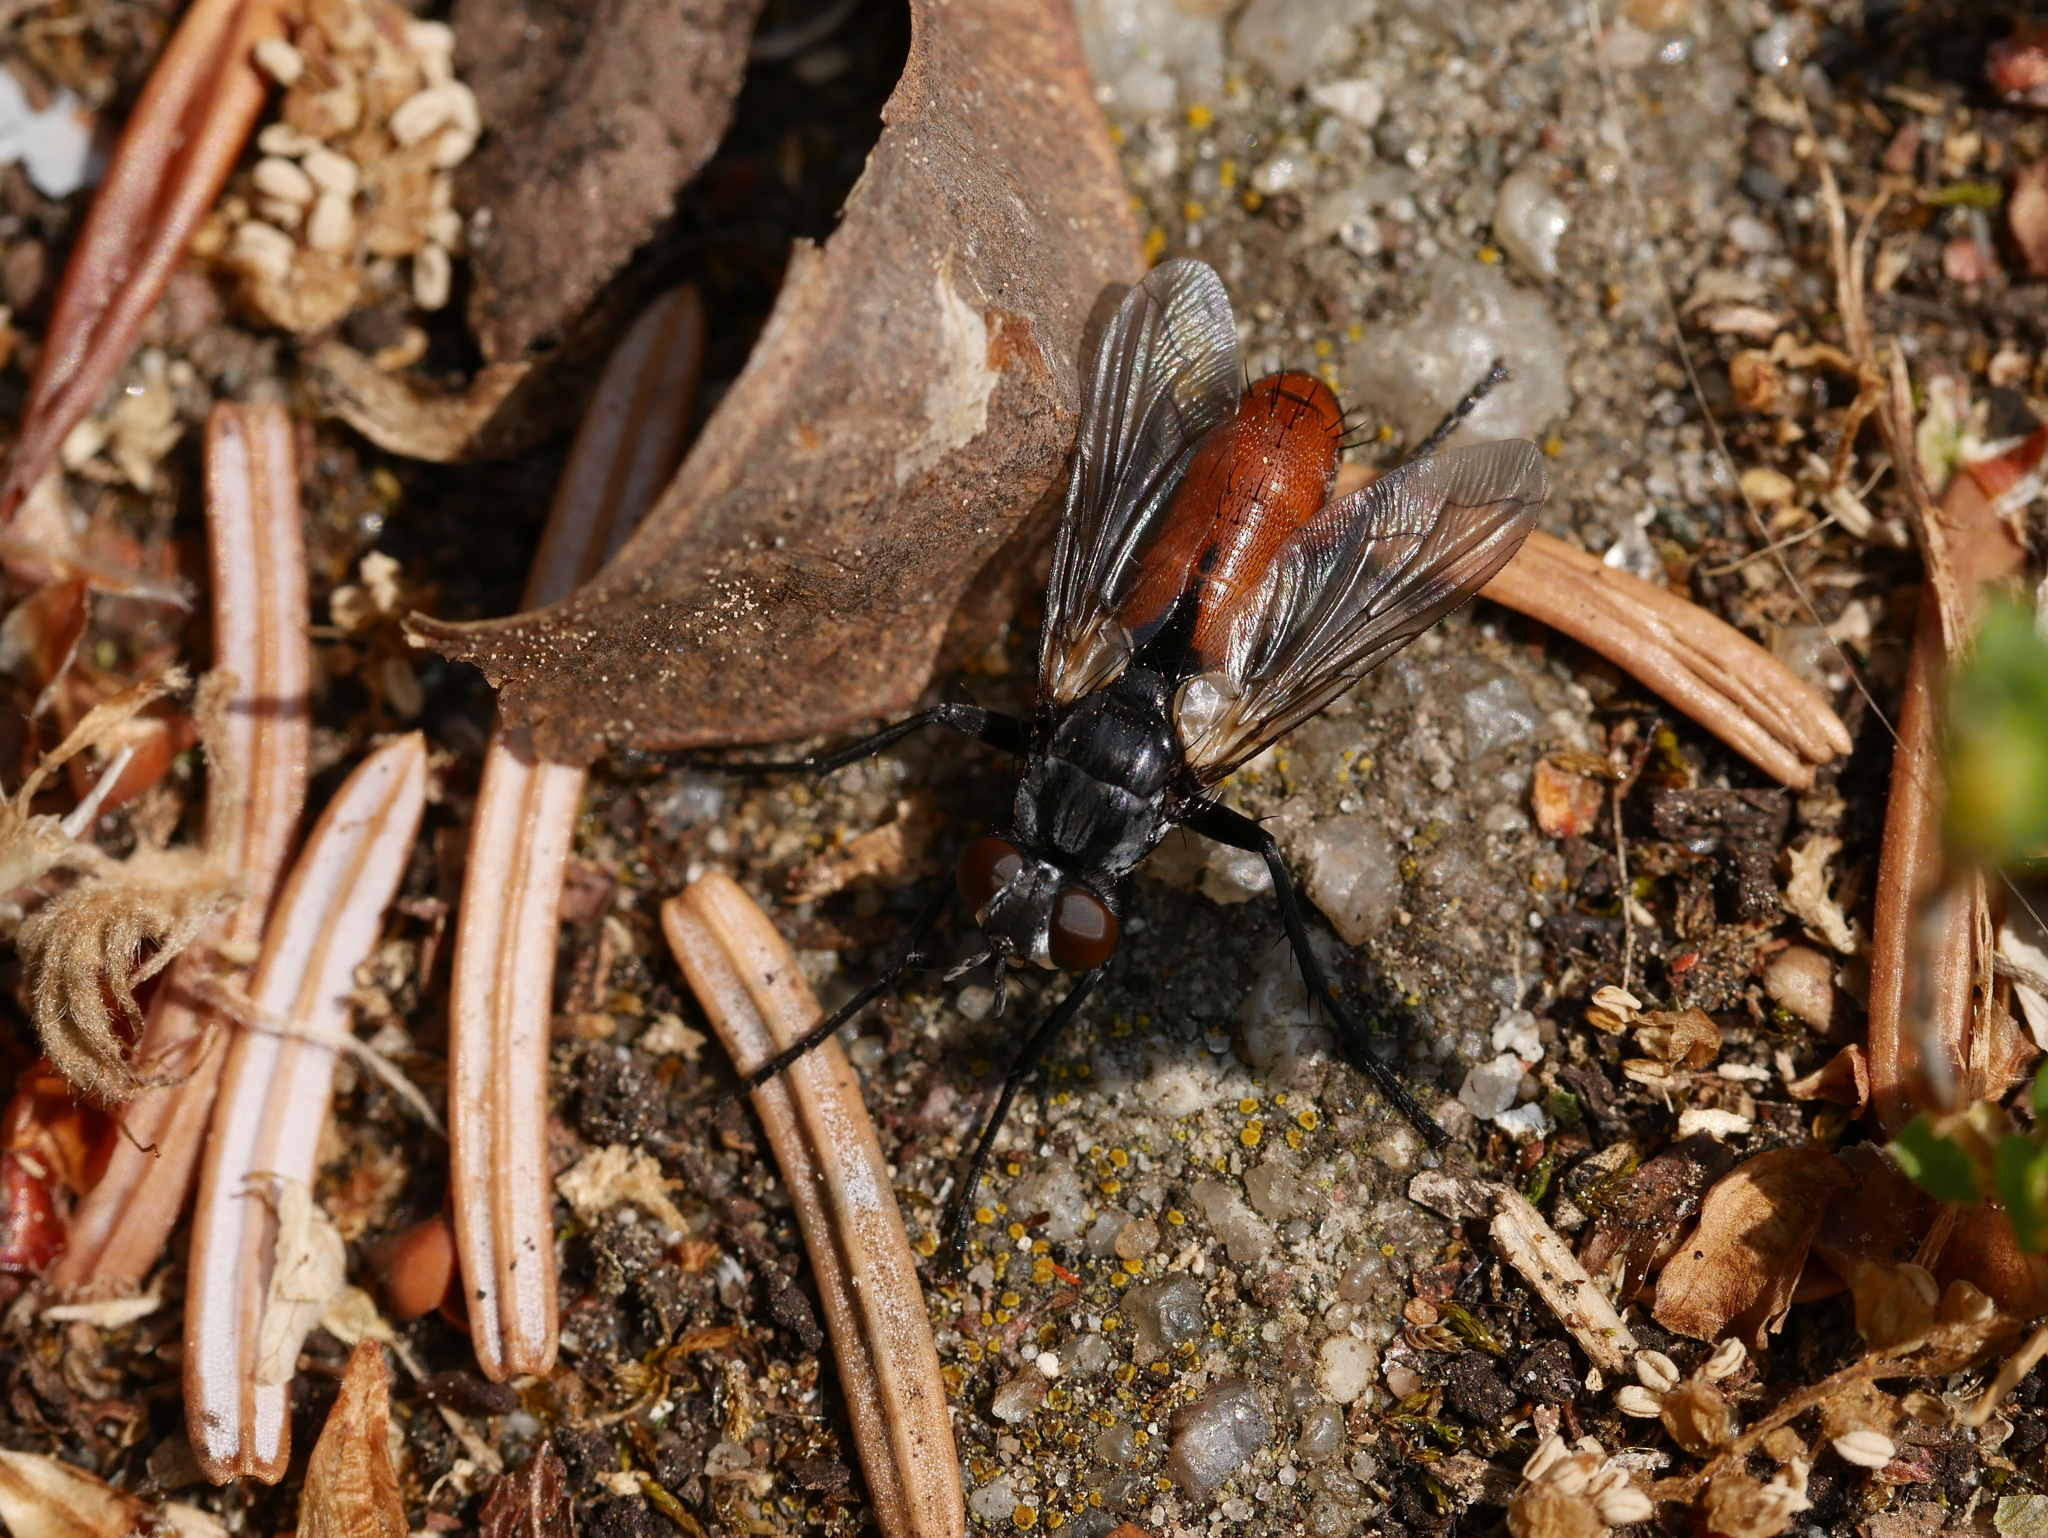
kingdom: Animalia
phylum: Arthropoda
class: Insecta
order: Diptera
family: Tachinidae
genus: Cylindromyia
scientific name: Cylindromyia bicolor
